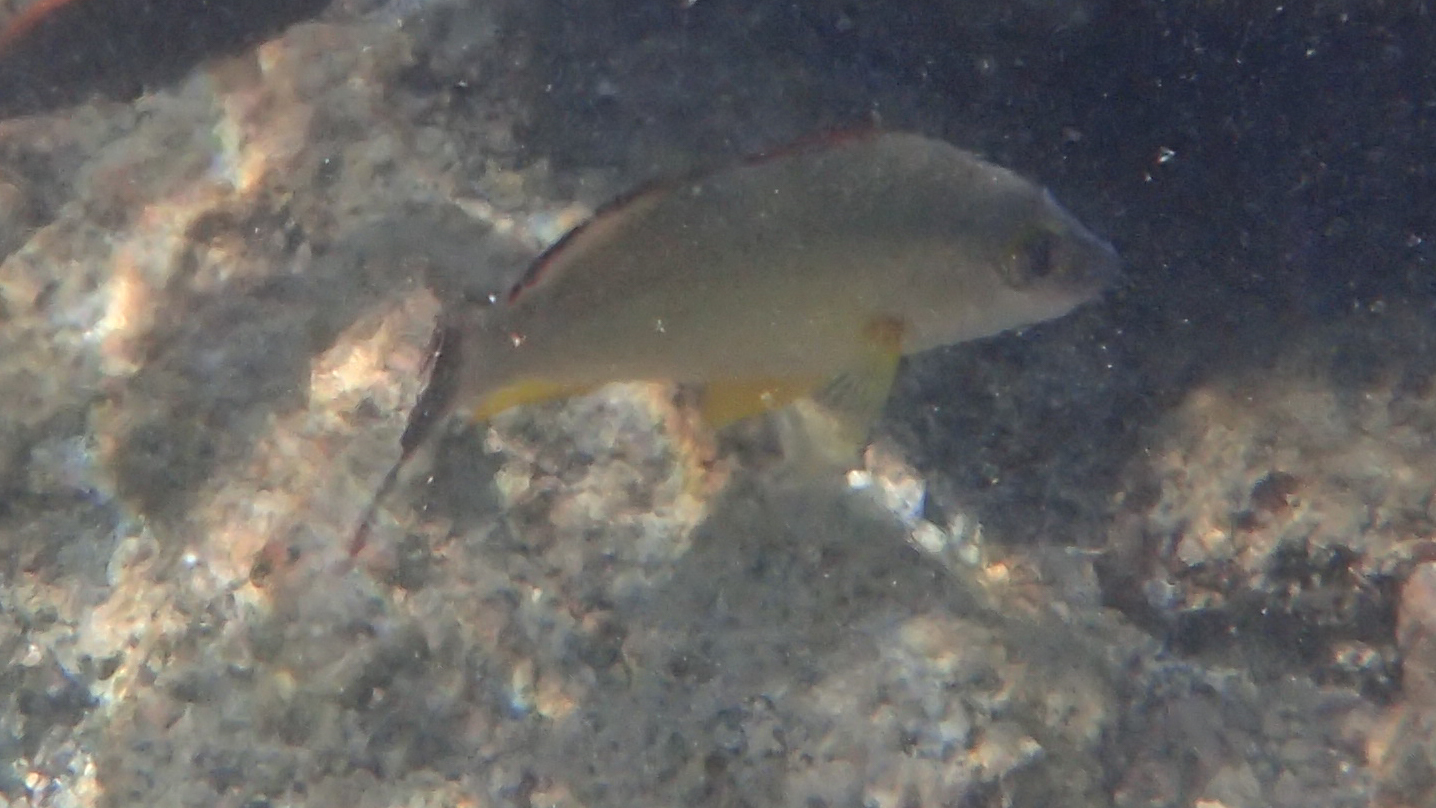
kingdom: Animalia
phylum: Chordata
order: Perciformes
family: Lutjanidae
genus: Lutjanus
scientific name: Lutjanus fulvus
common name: Blacktail snapper
